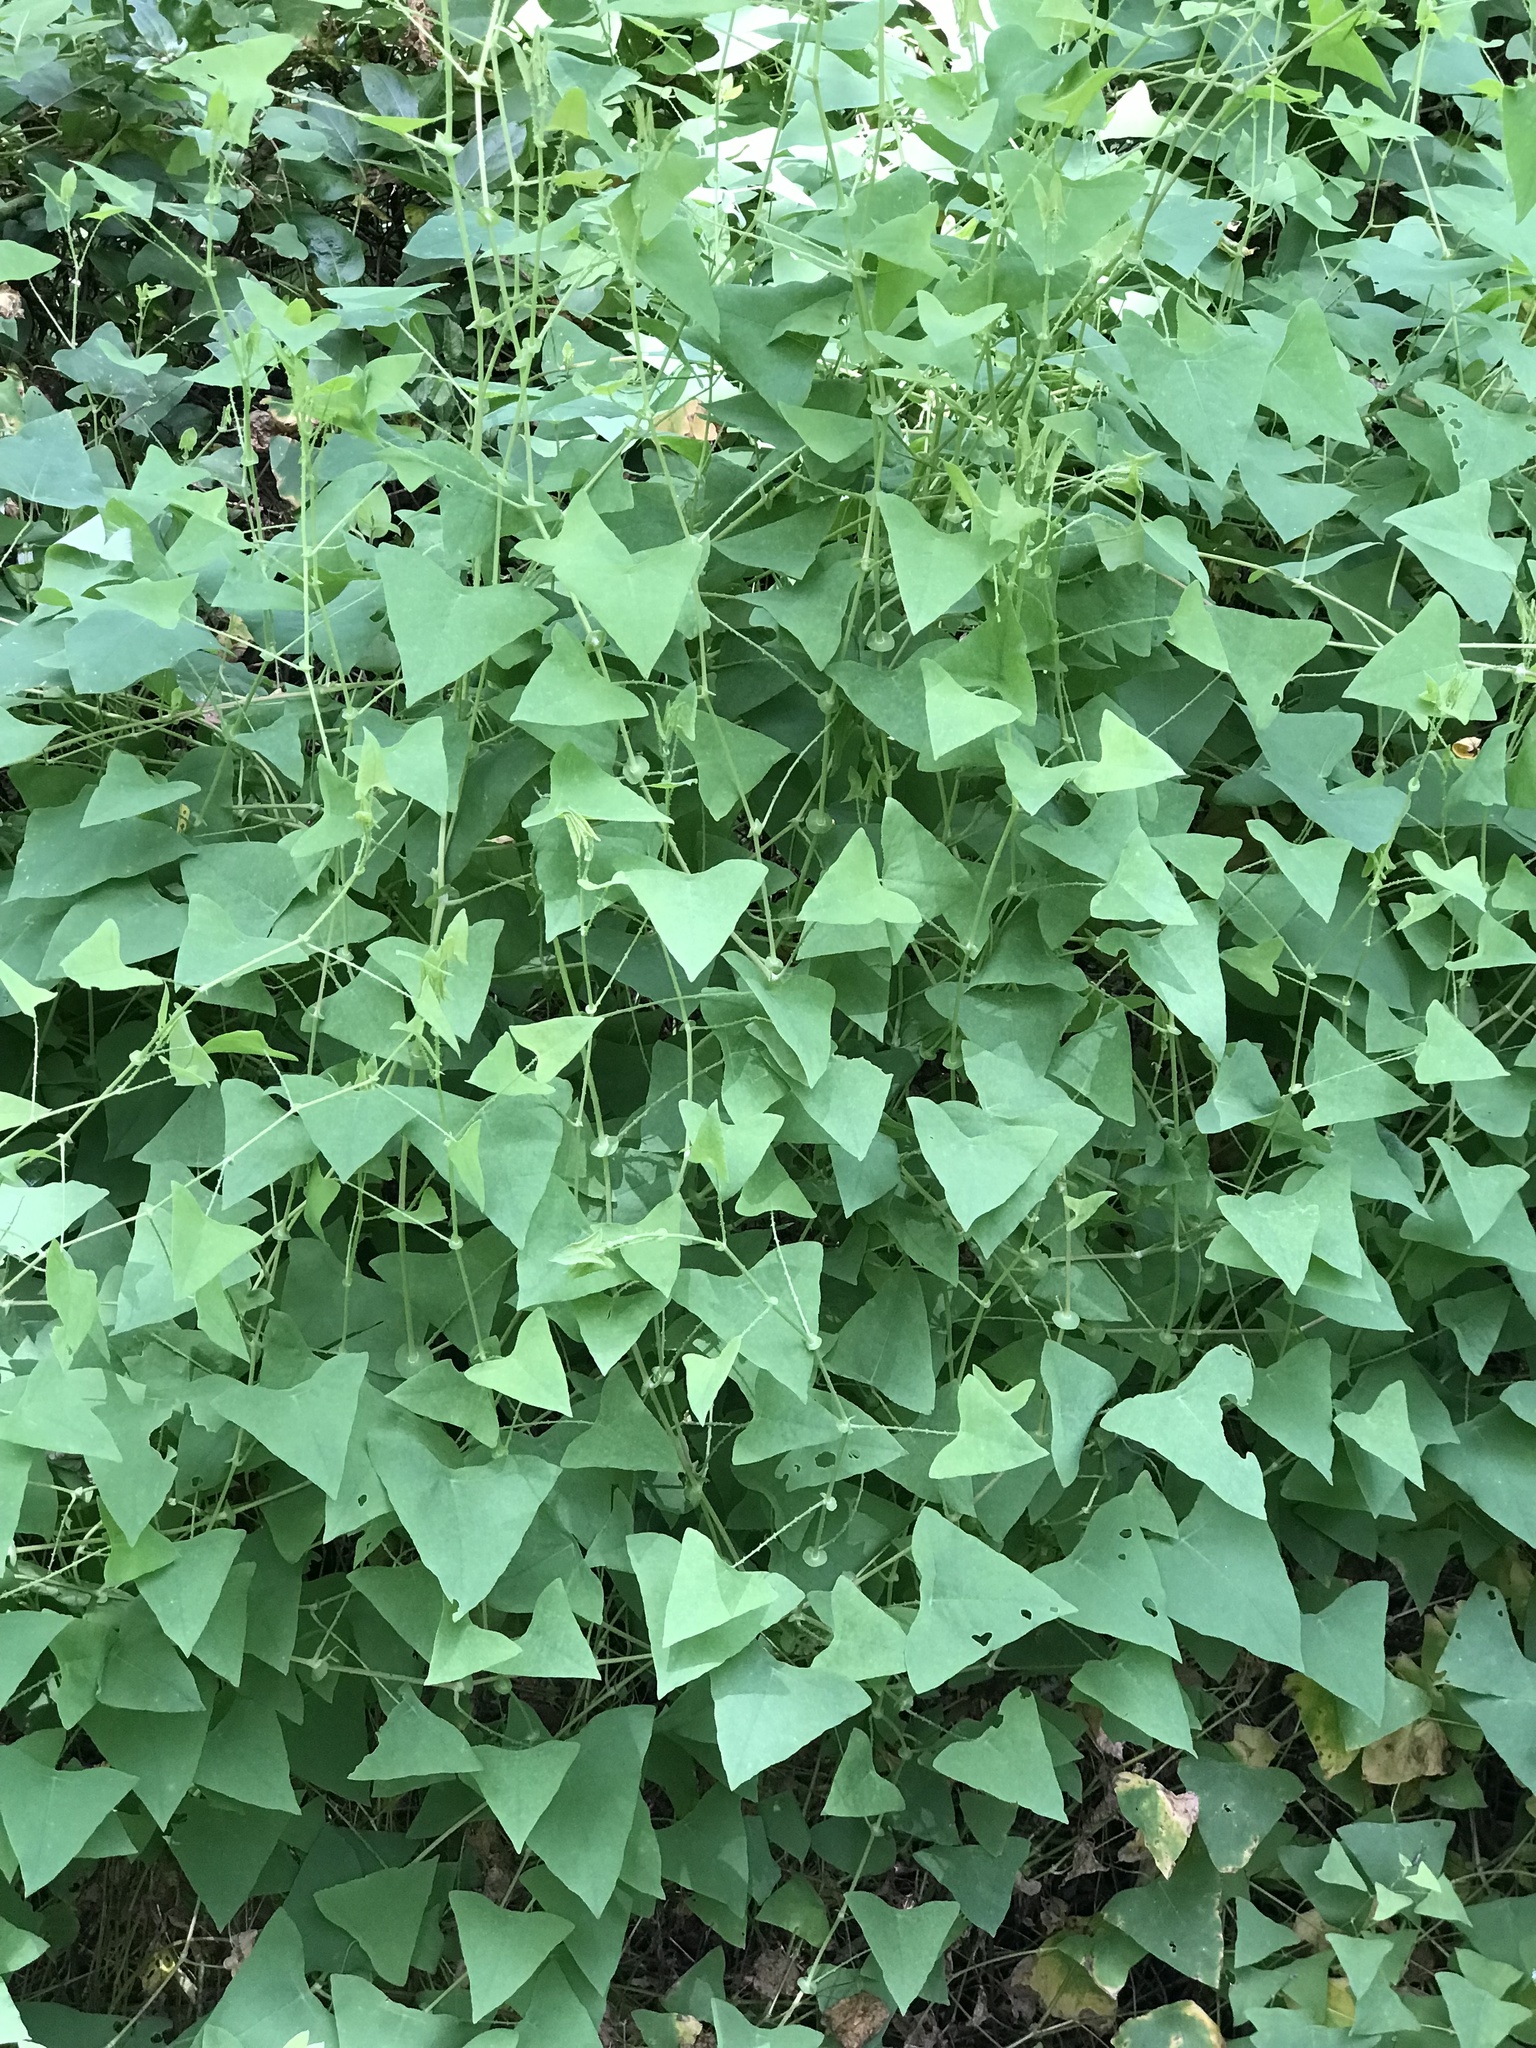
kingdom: Plantae
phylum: Tracheophyta
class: Magnoliopsida
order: Caryophyllales
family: Polygonaceae
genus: Persicaria
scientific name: Persicaria perfoliata
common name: Asiatic tearthumb
